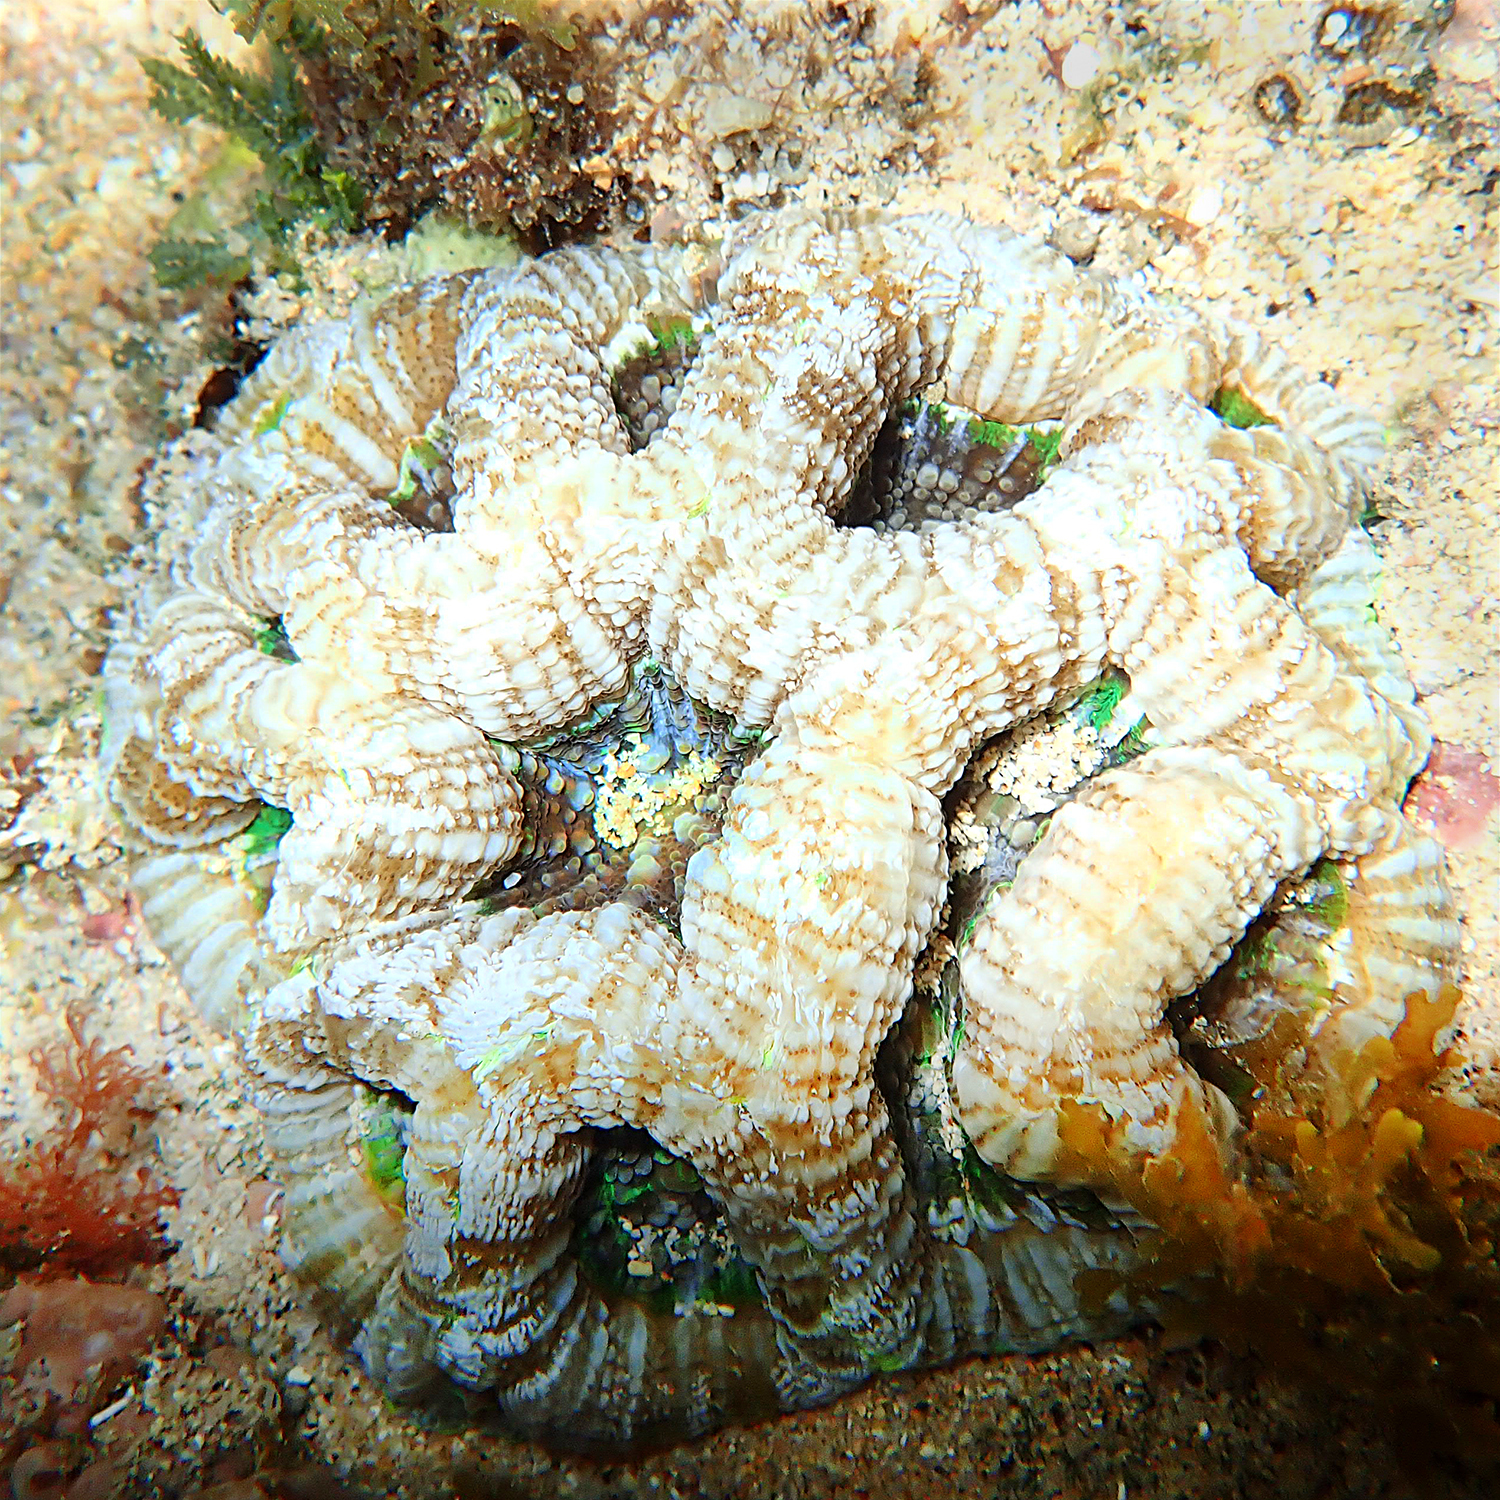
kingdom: Animalia
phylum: Cnidaria
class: Anthozoa
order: Scleractinia
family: Lobophylliidae
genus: Homophyllia
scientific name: Homophyllia bowerbanki
